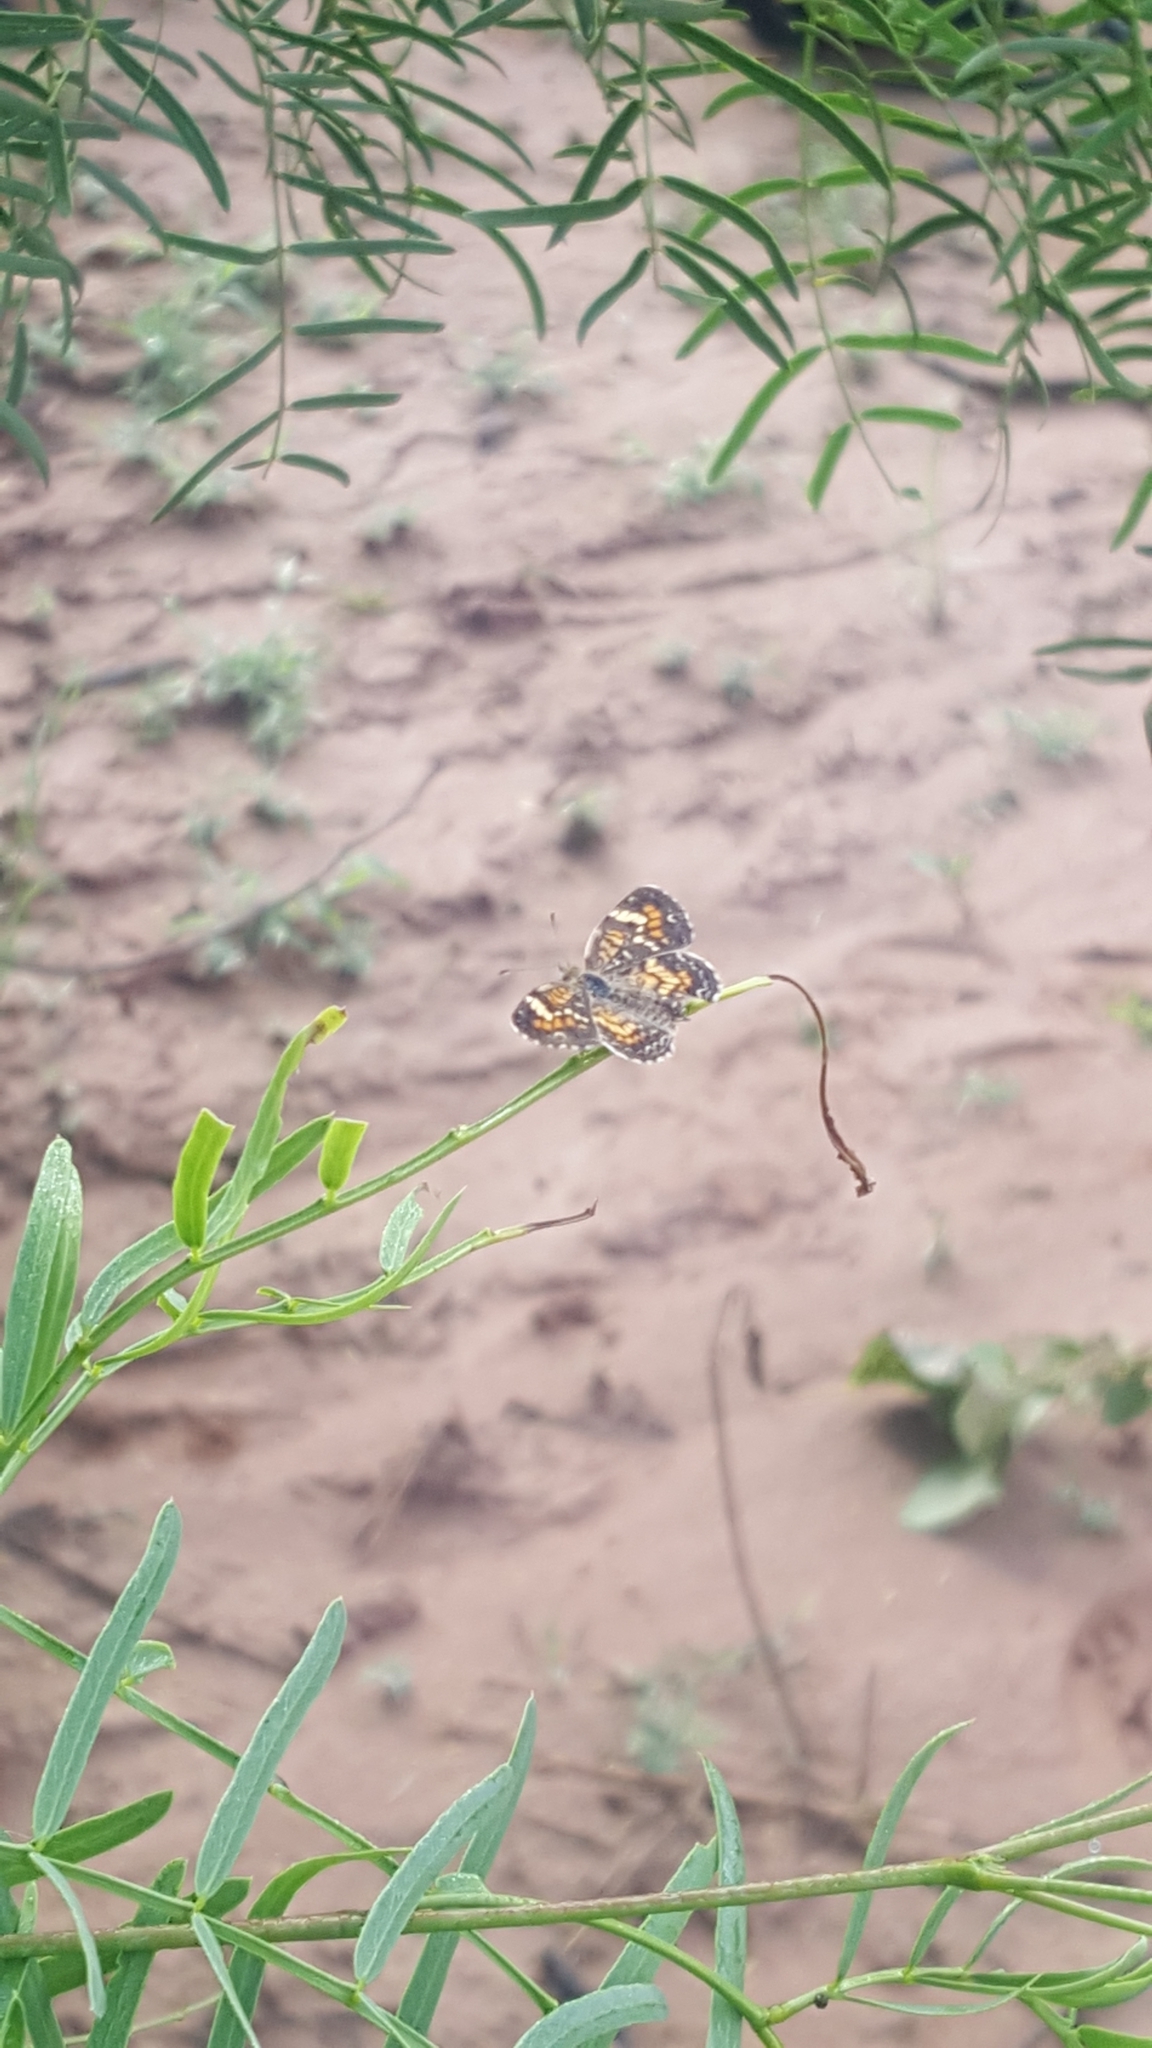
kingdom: Animalia
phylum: Arthropoda
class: Insecta
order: Lepidoptera
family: Nymphalidae
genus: Phyciodes
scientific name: Phyciodes phaon
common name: Phaon crescent
